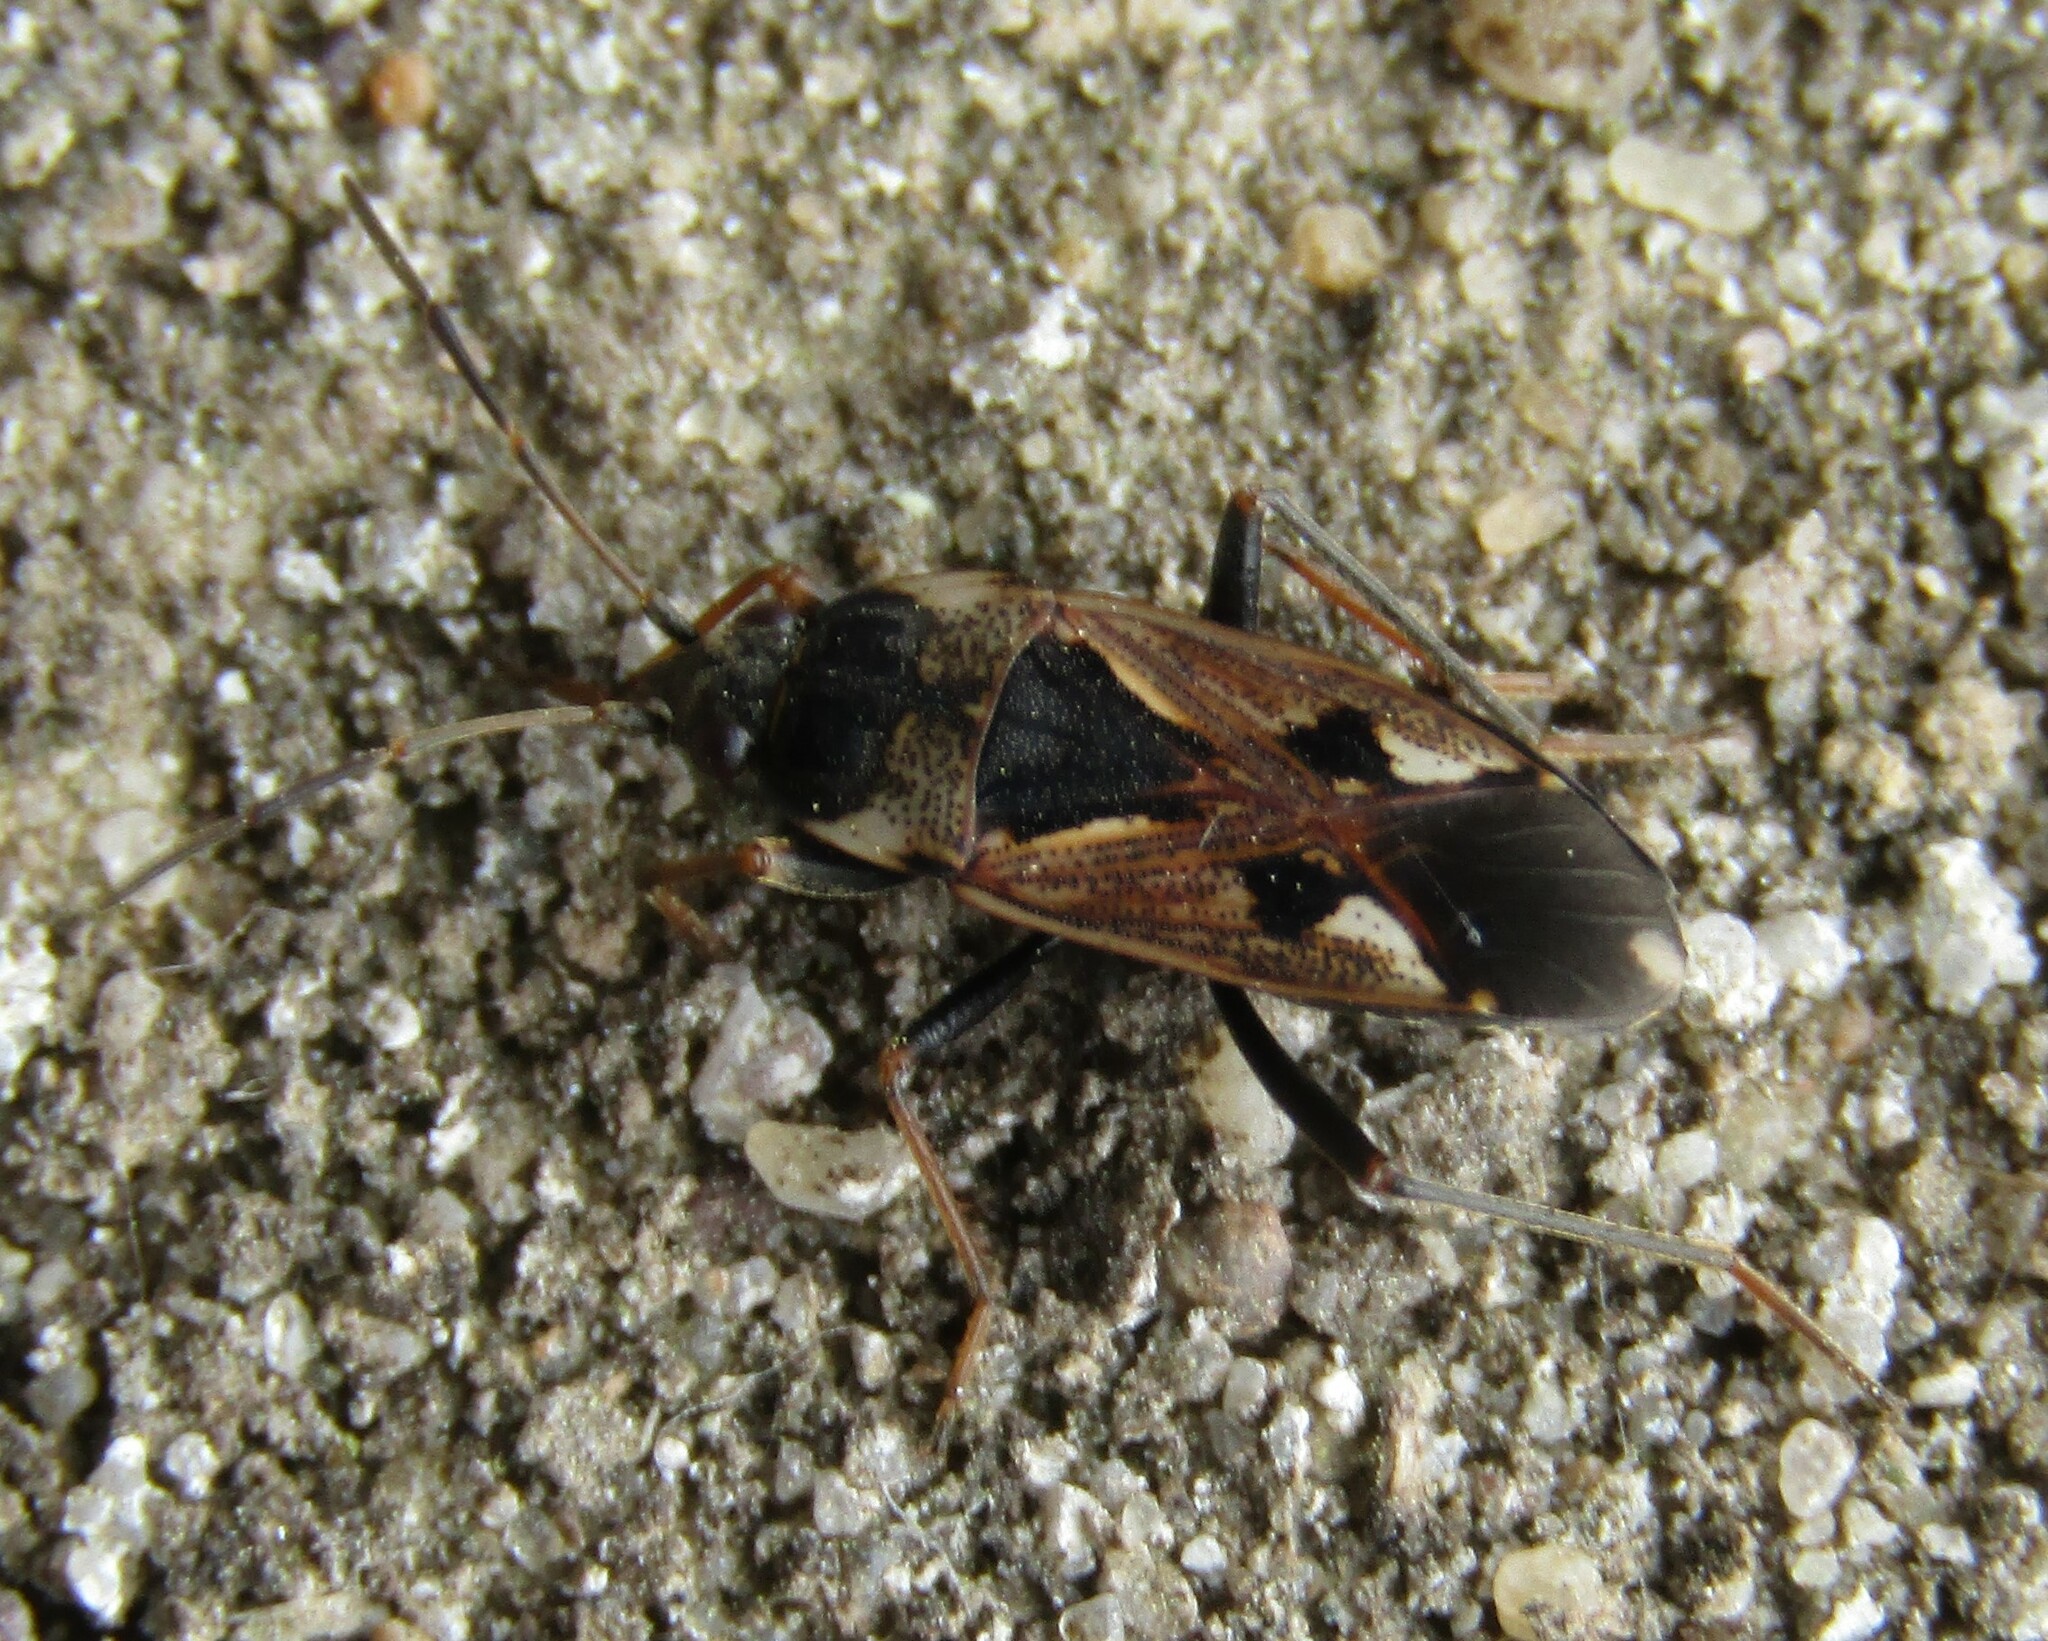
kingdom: Animalia
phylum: Arthropoda
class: Insecta
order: Hemiptera
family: Rhyparochromidae
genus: Rhyparochromus
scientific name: Rhyparochromus vulgaris
